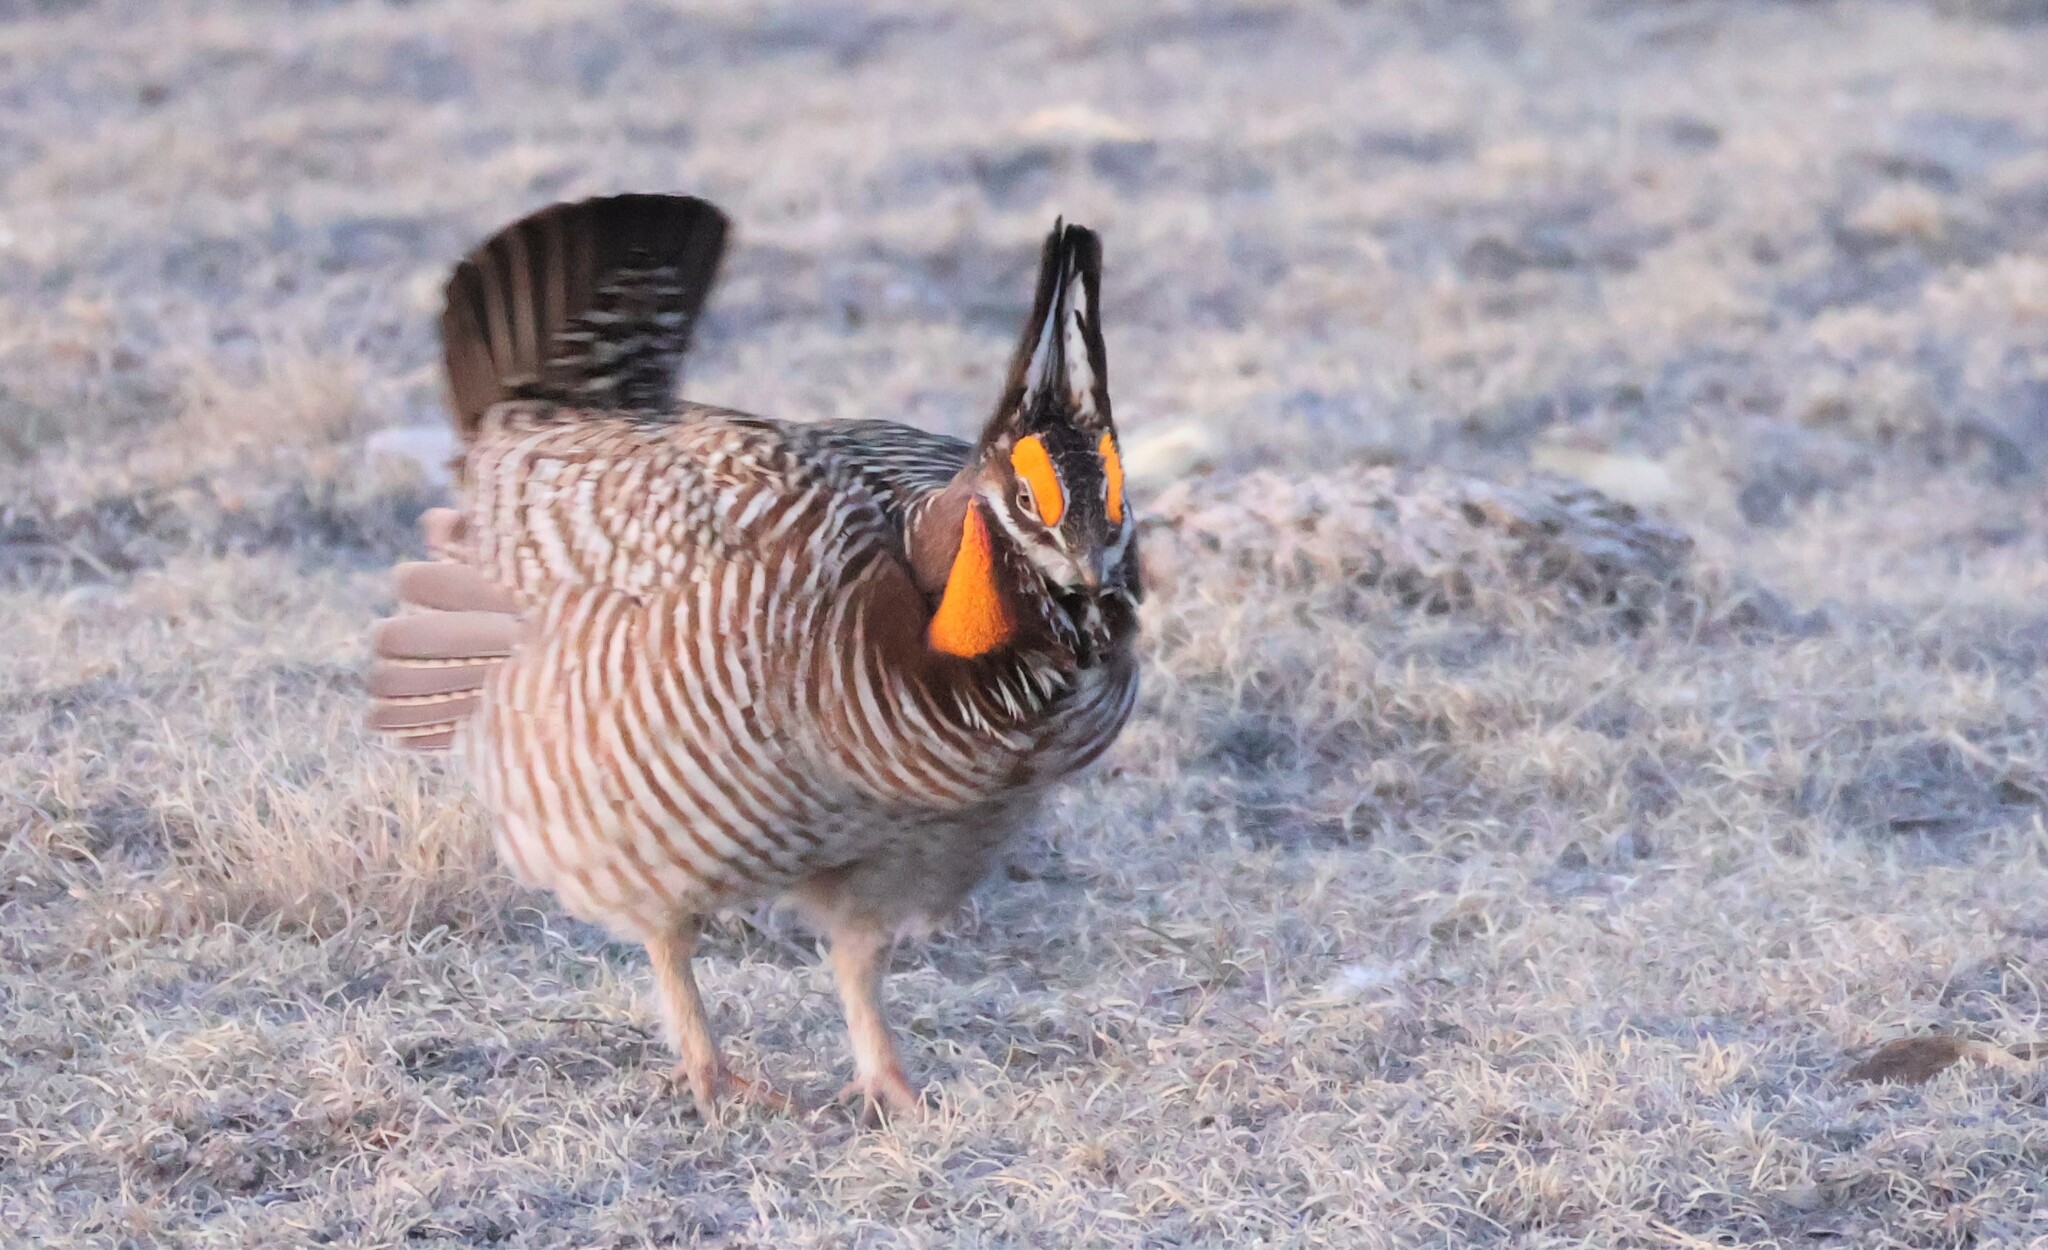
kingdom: Animalia
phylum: Chordata
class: Aves
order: Galliformes
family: Phasianidae
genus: Tympanuchus
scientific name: Tympanuchus cupido
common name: Greater prairie chicken
